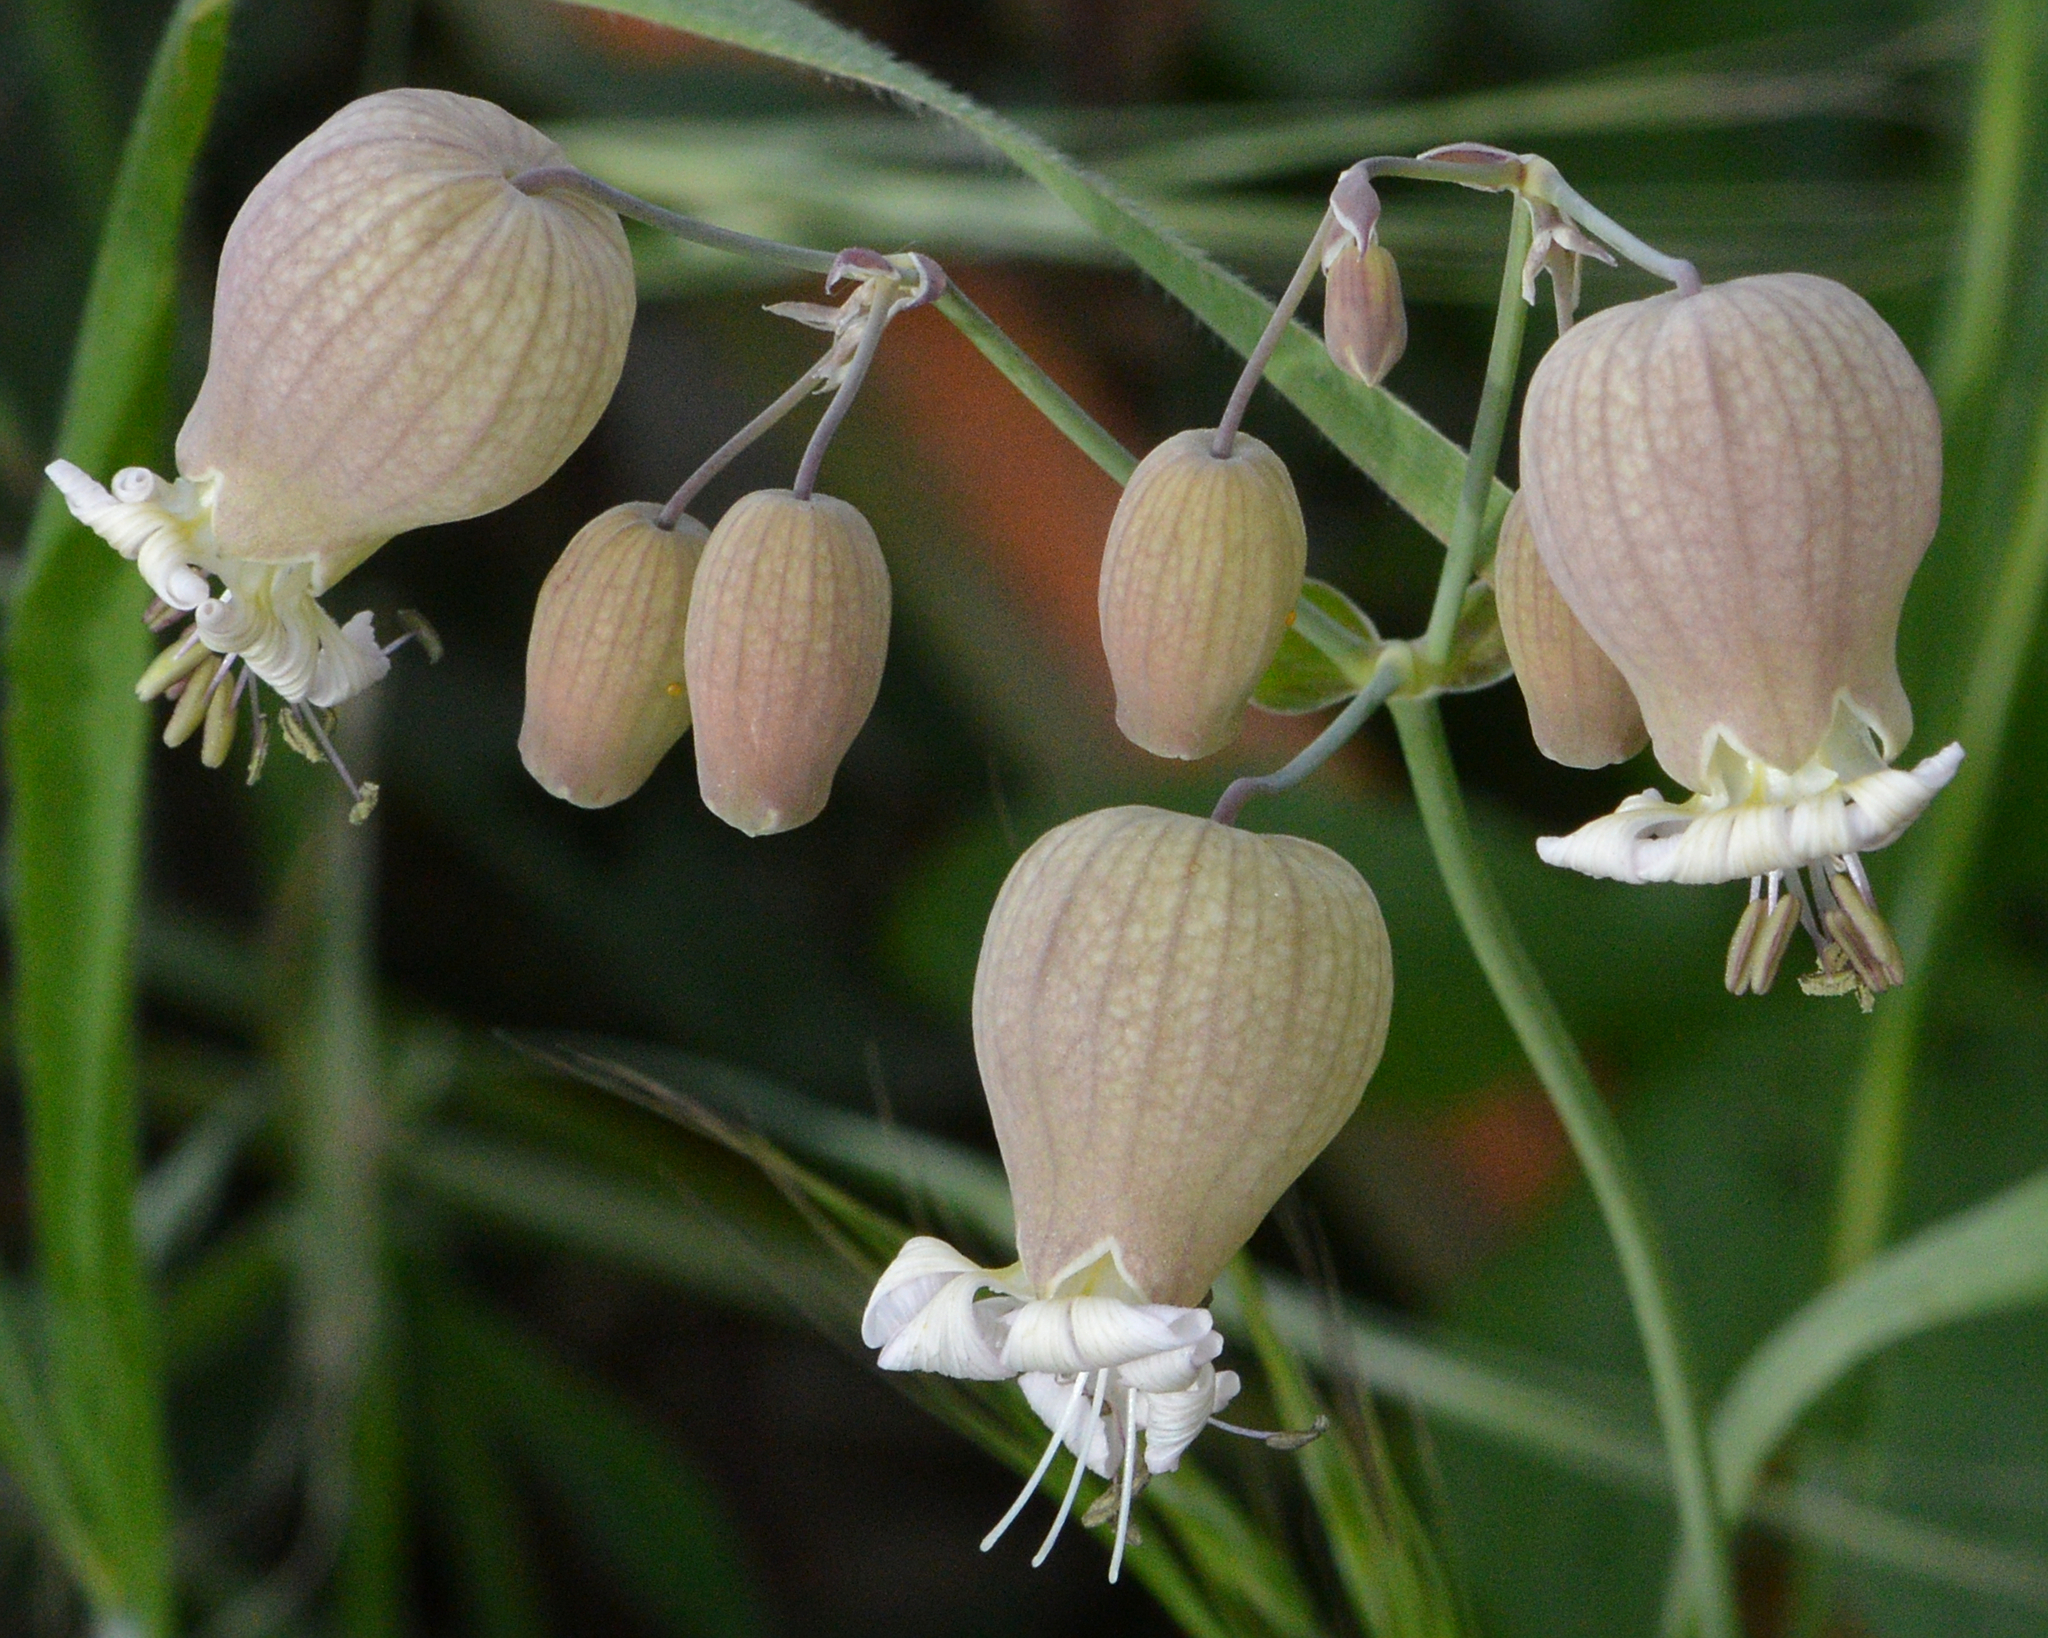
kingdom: Plantae
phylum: Tracheophyta
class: Magnoliopsida
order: Caryophyllales
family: Caryophyllaceae
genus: Silene
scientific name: Silene vulgaris
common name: Bladder campion
